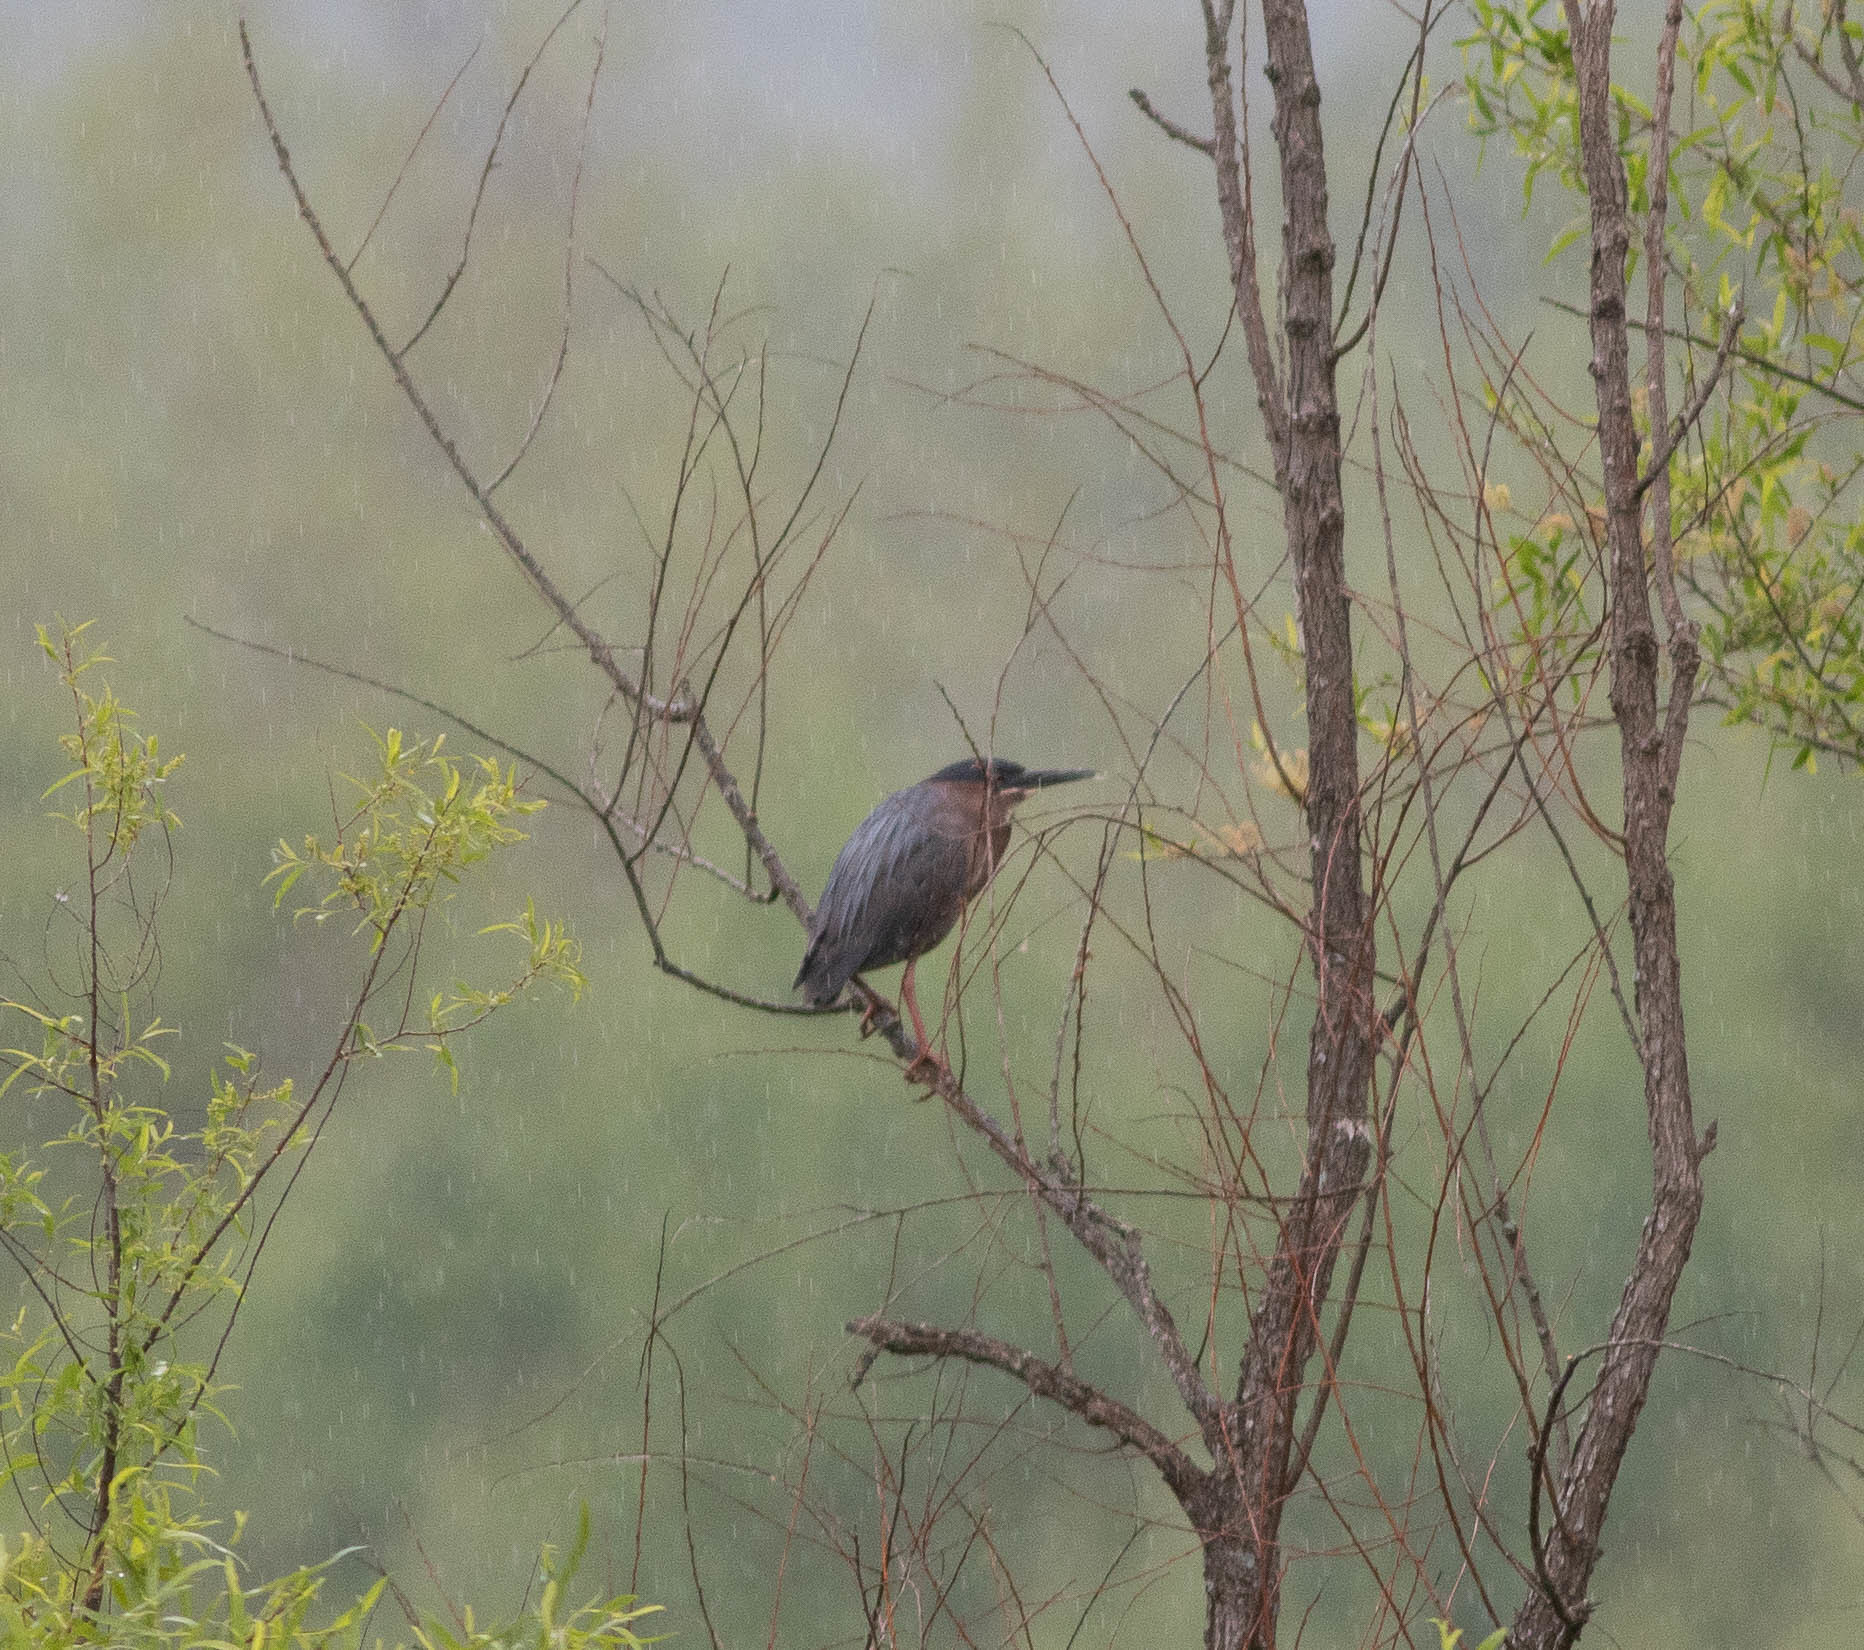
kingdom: Animalia
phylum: Chordata
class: Aves
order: Pelecaniformes
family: Ardeidae
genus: Butorides
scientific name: Butorides virescens
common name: Green heron
